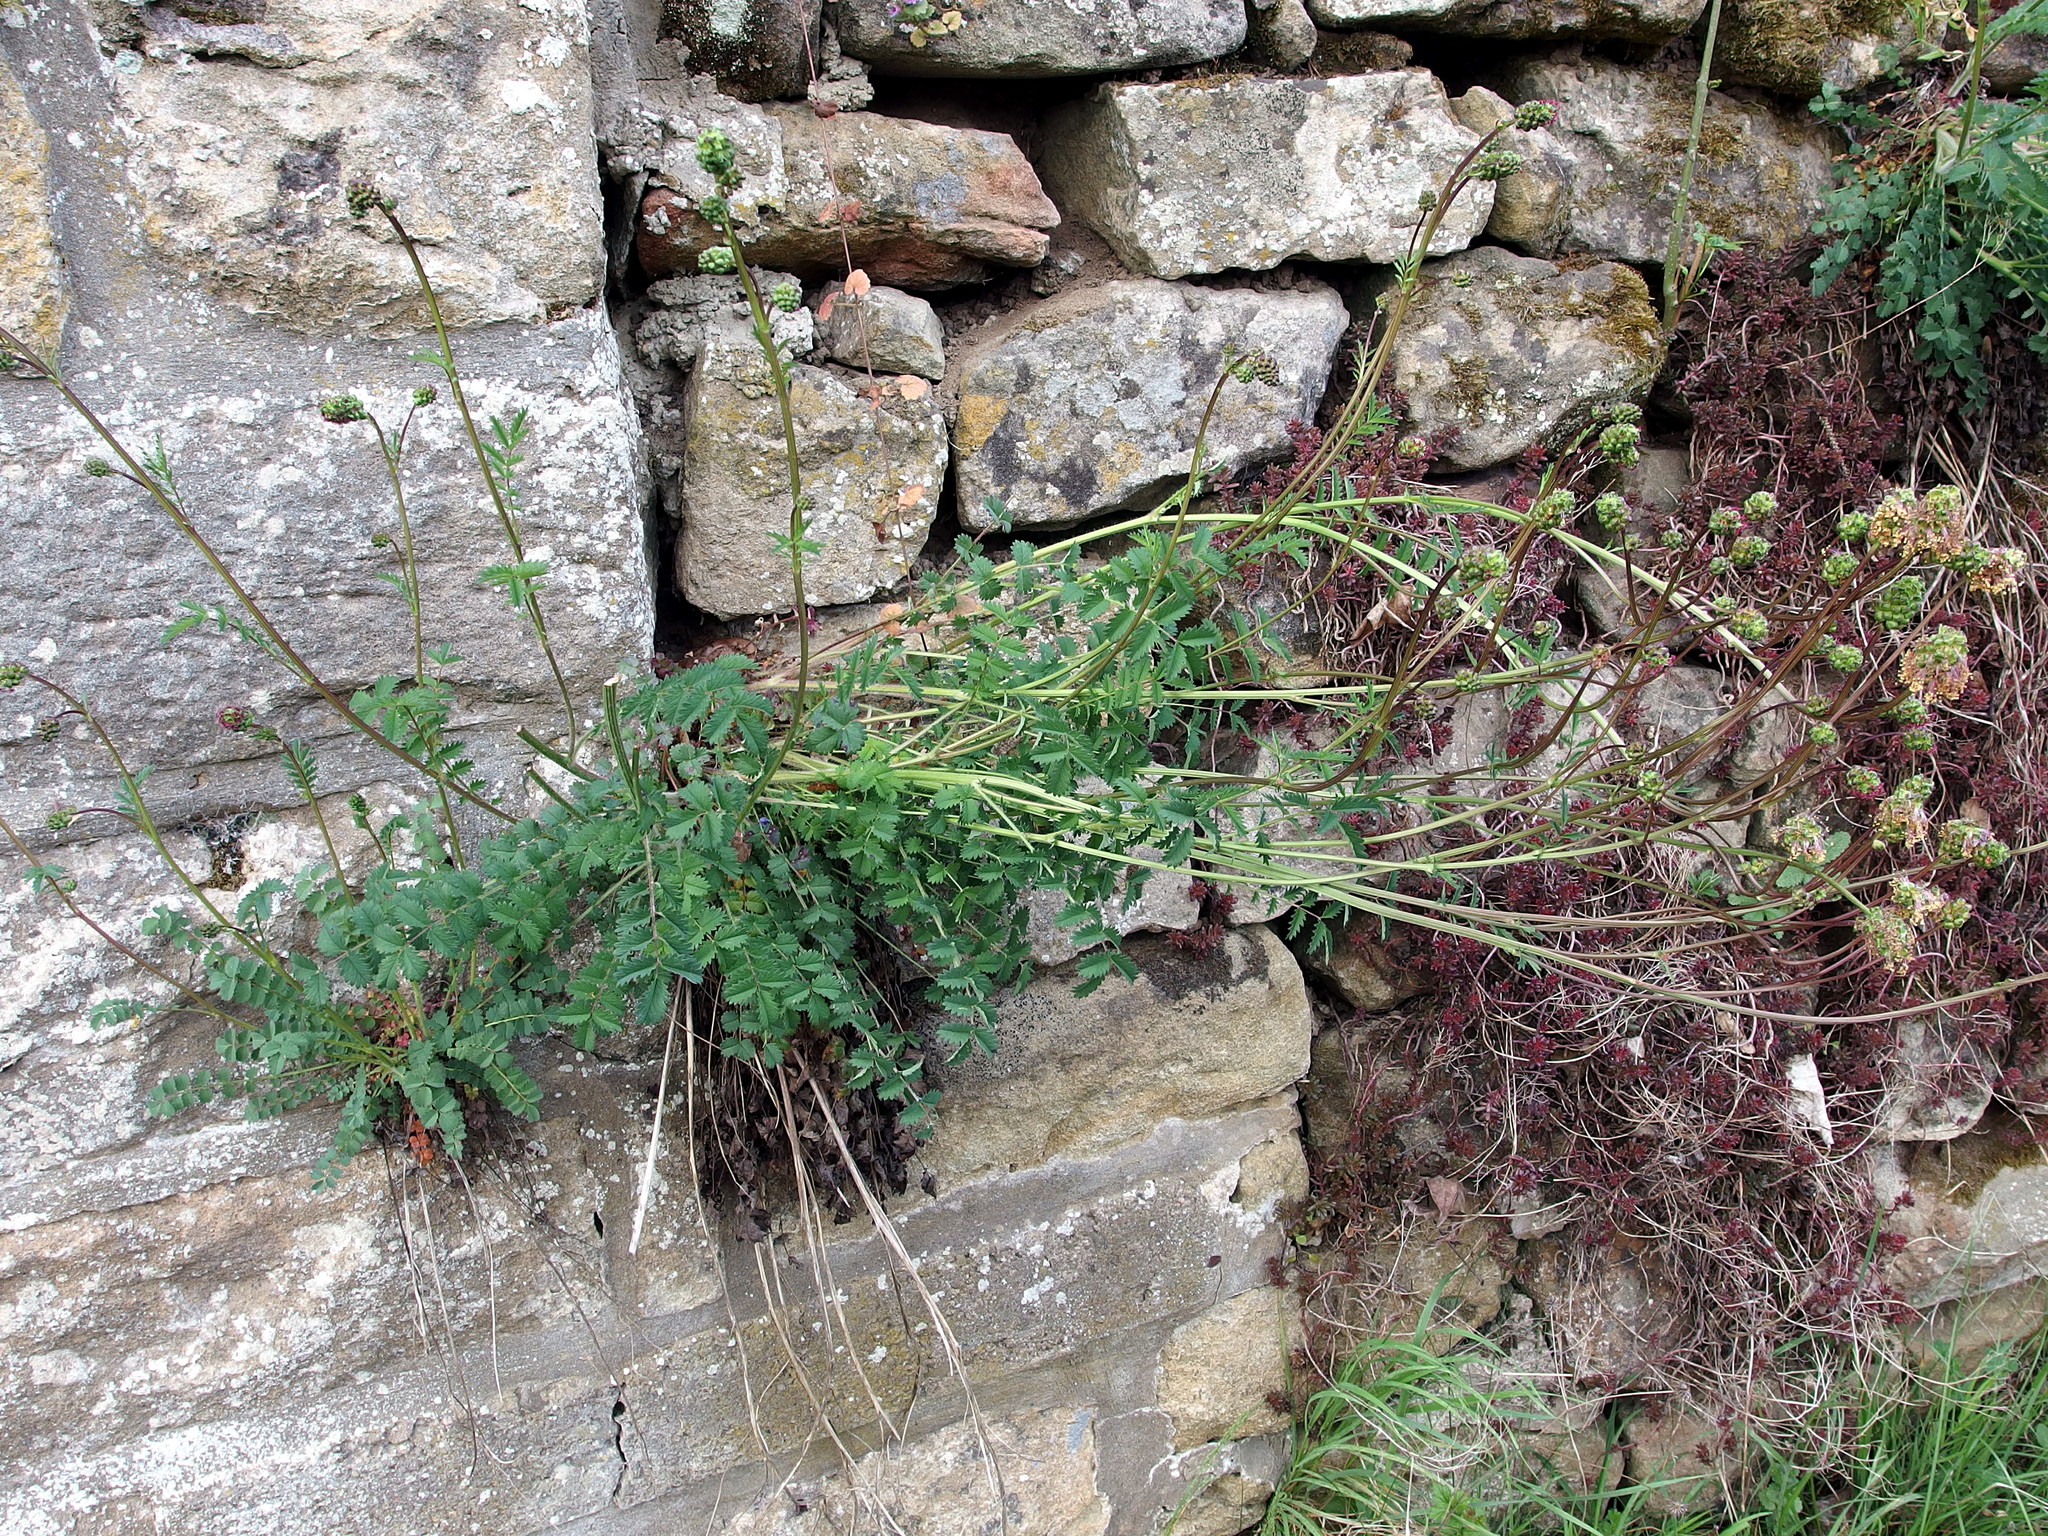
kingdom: Plantae
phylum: Tracheophyta
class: Magnoliopsida
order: Rosales
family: Rosaceae
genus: Poterium
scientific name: Poterium sanguisorba
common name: Salad burnet
